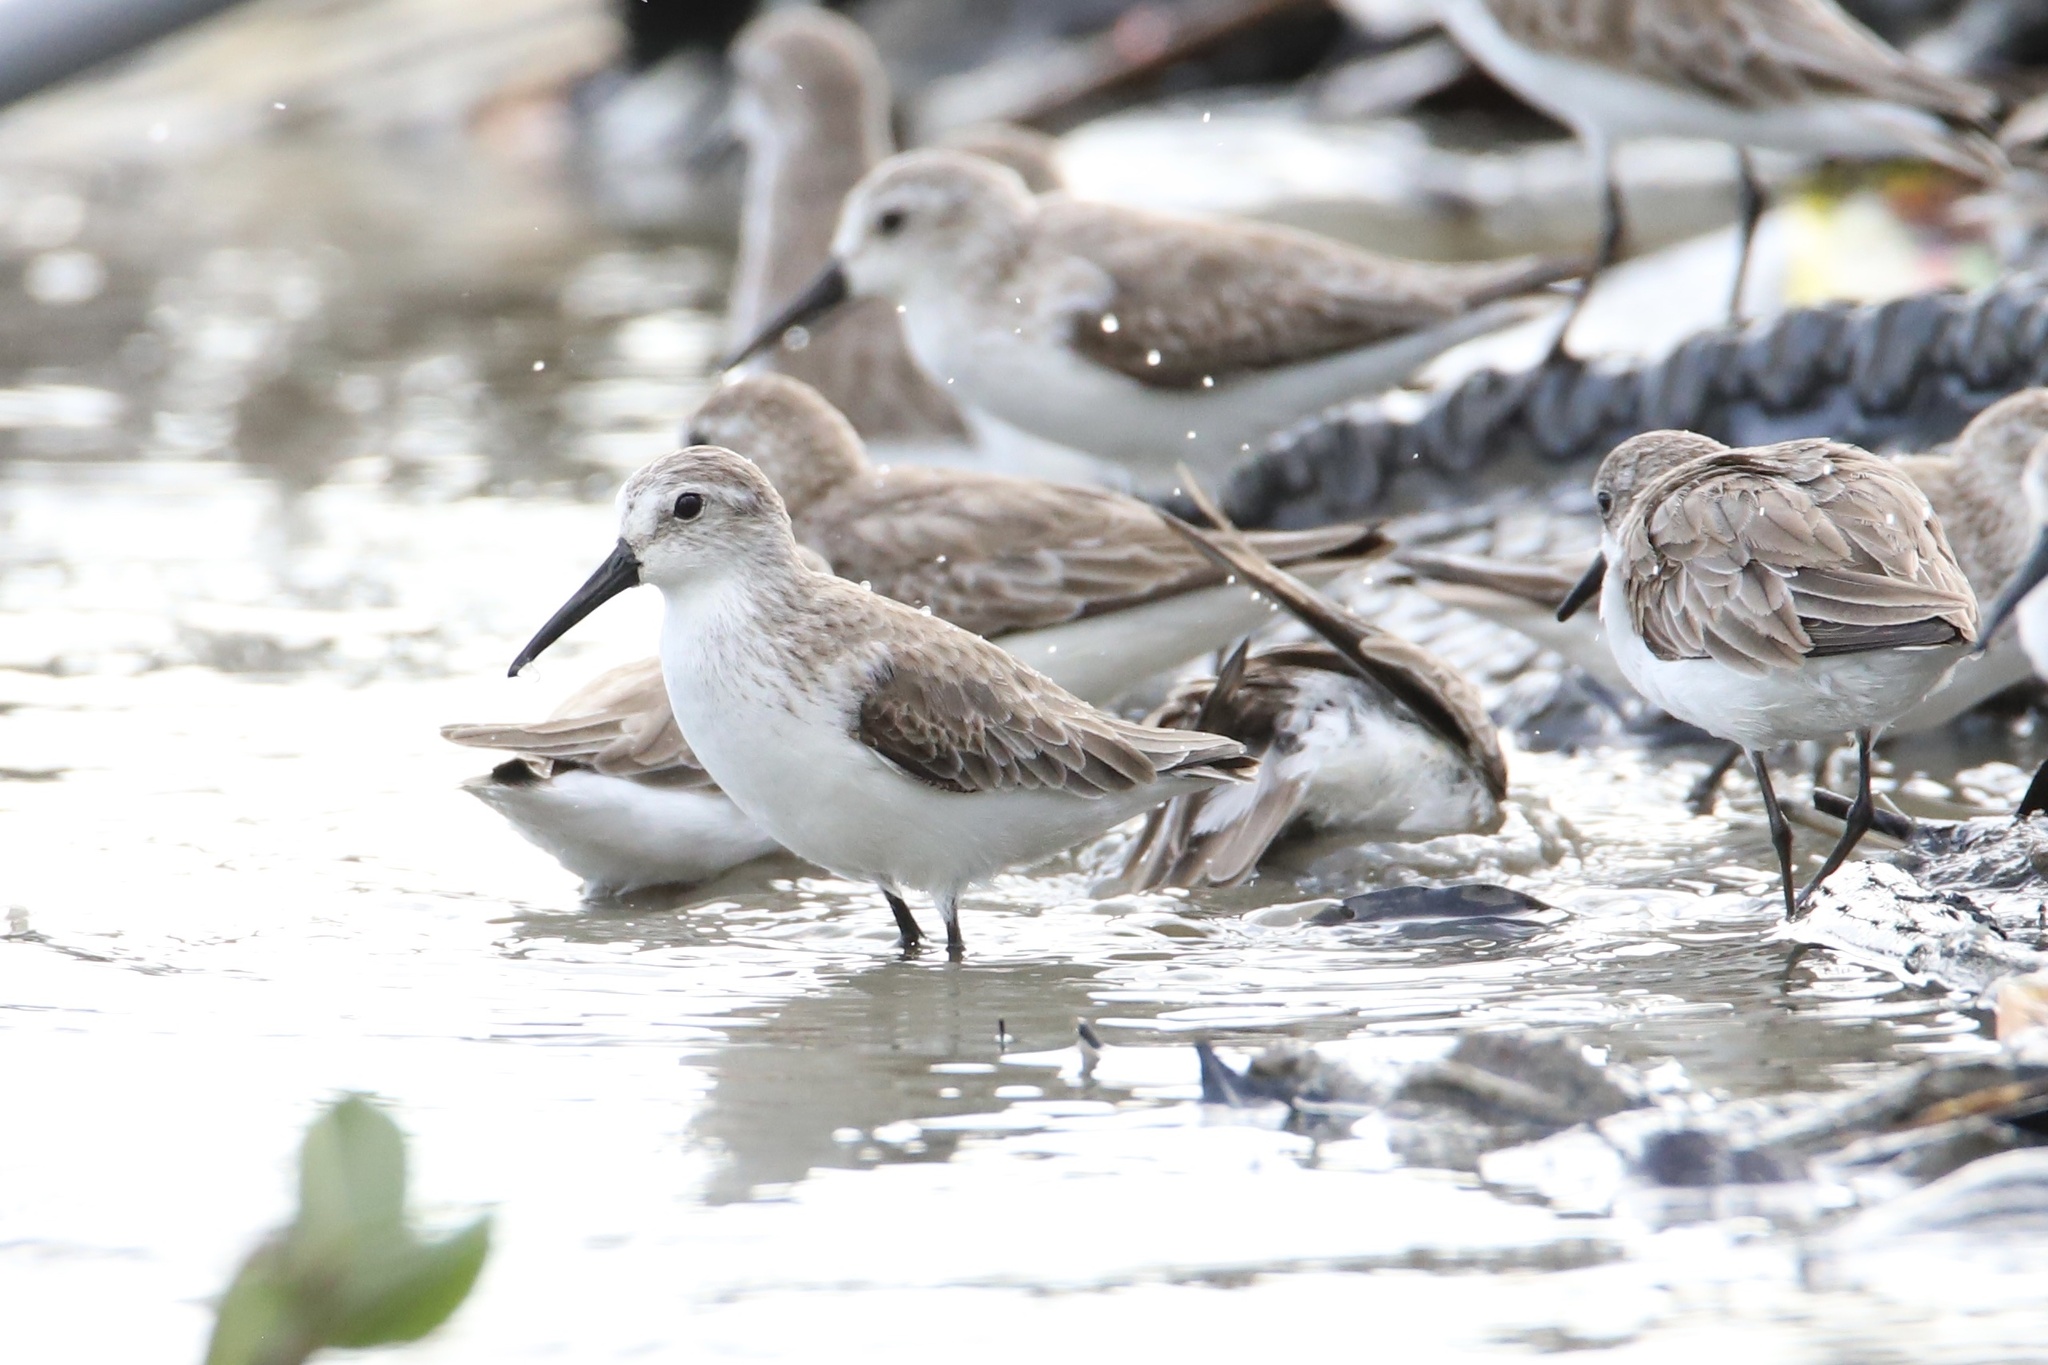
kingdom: Animalia
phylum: Chordata
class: Aves
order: Charadriiformes
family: Scolopacidae
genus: Calidris
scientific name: Calidris mauri
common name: Western sandpiper
